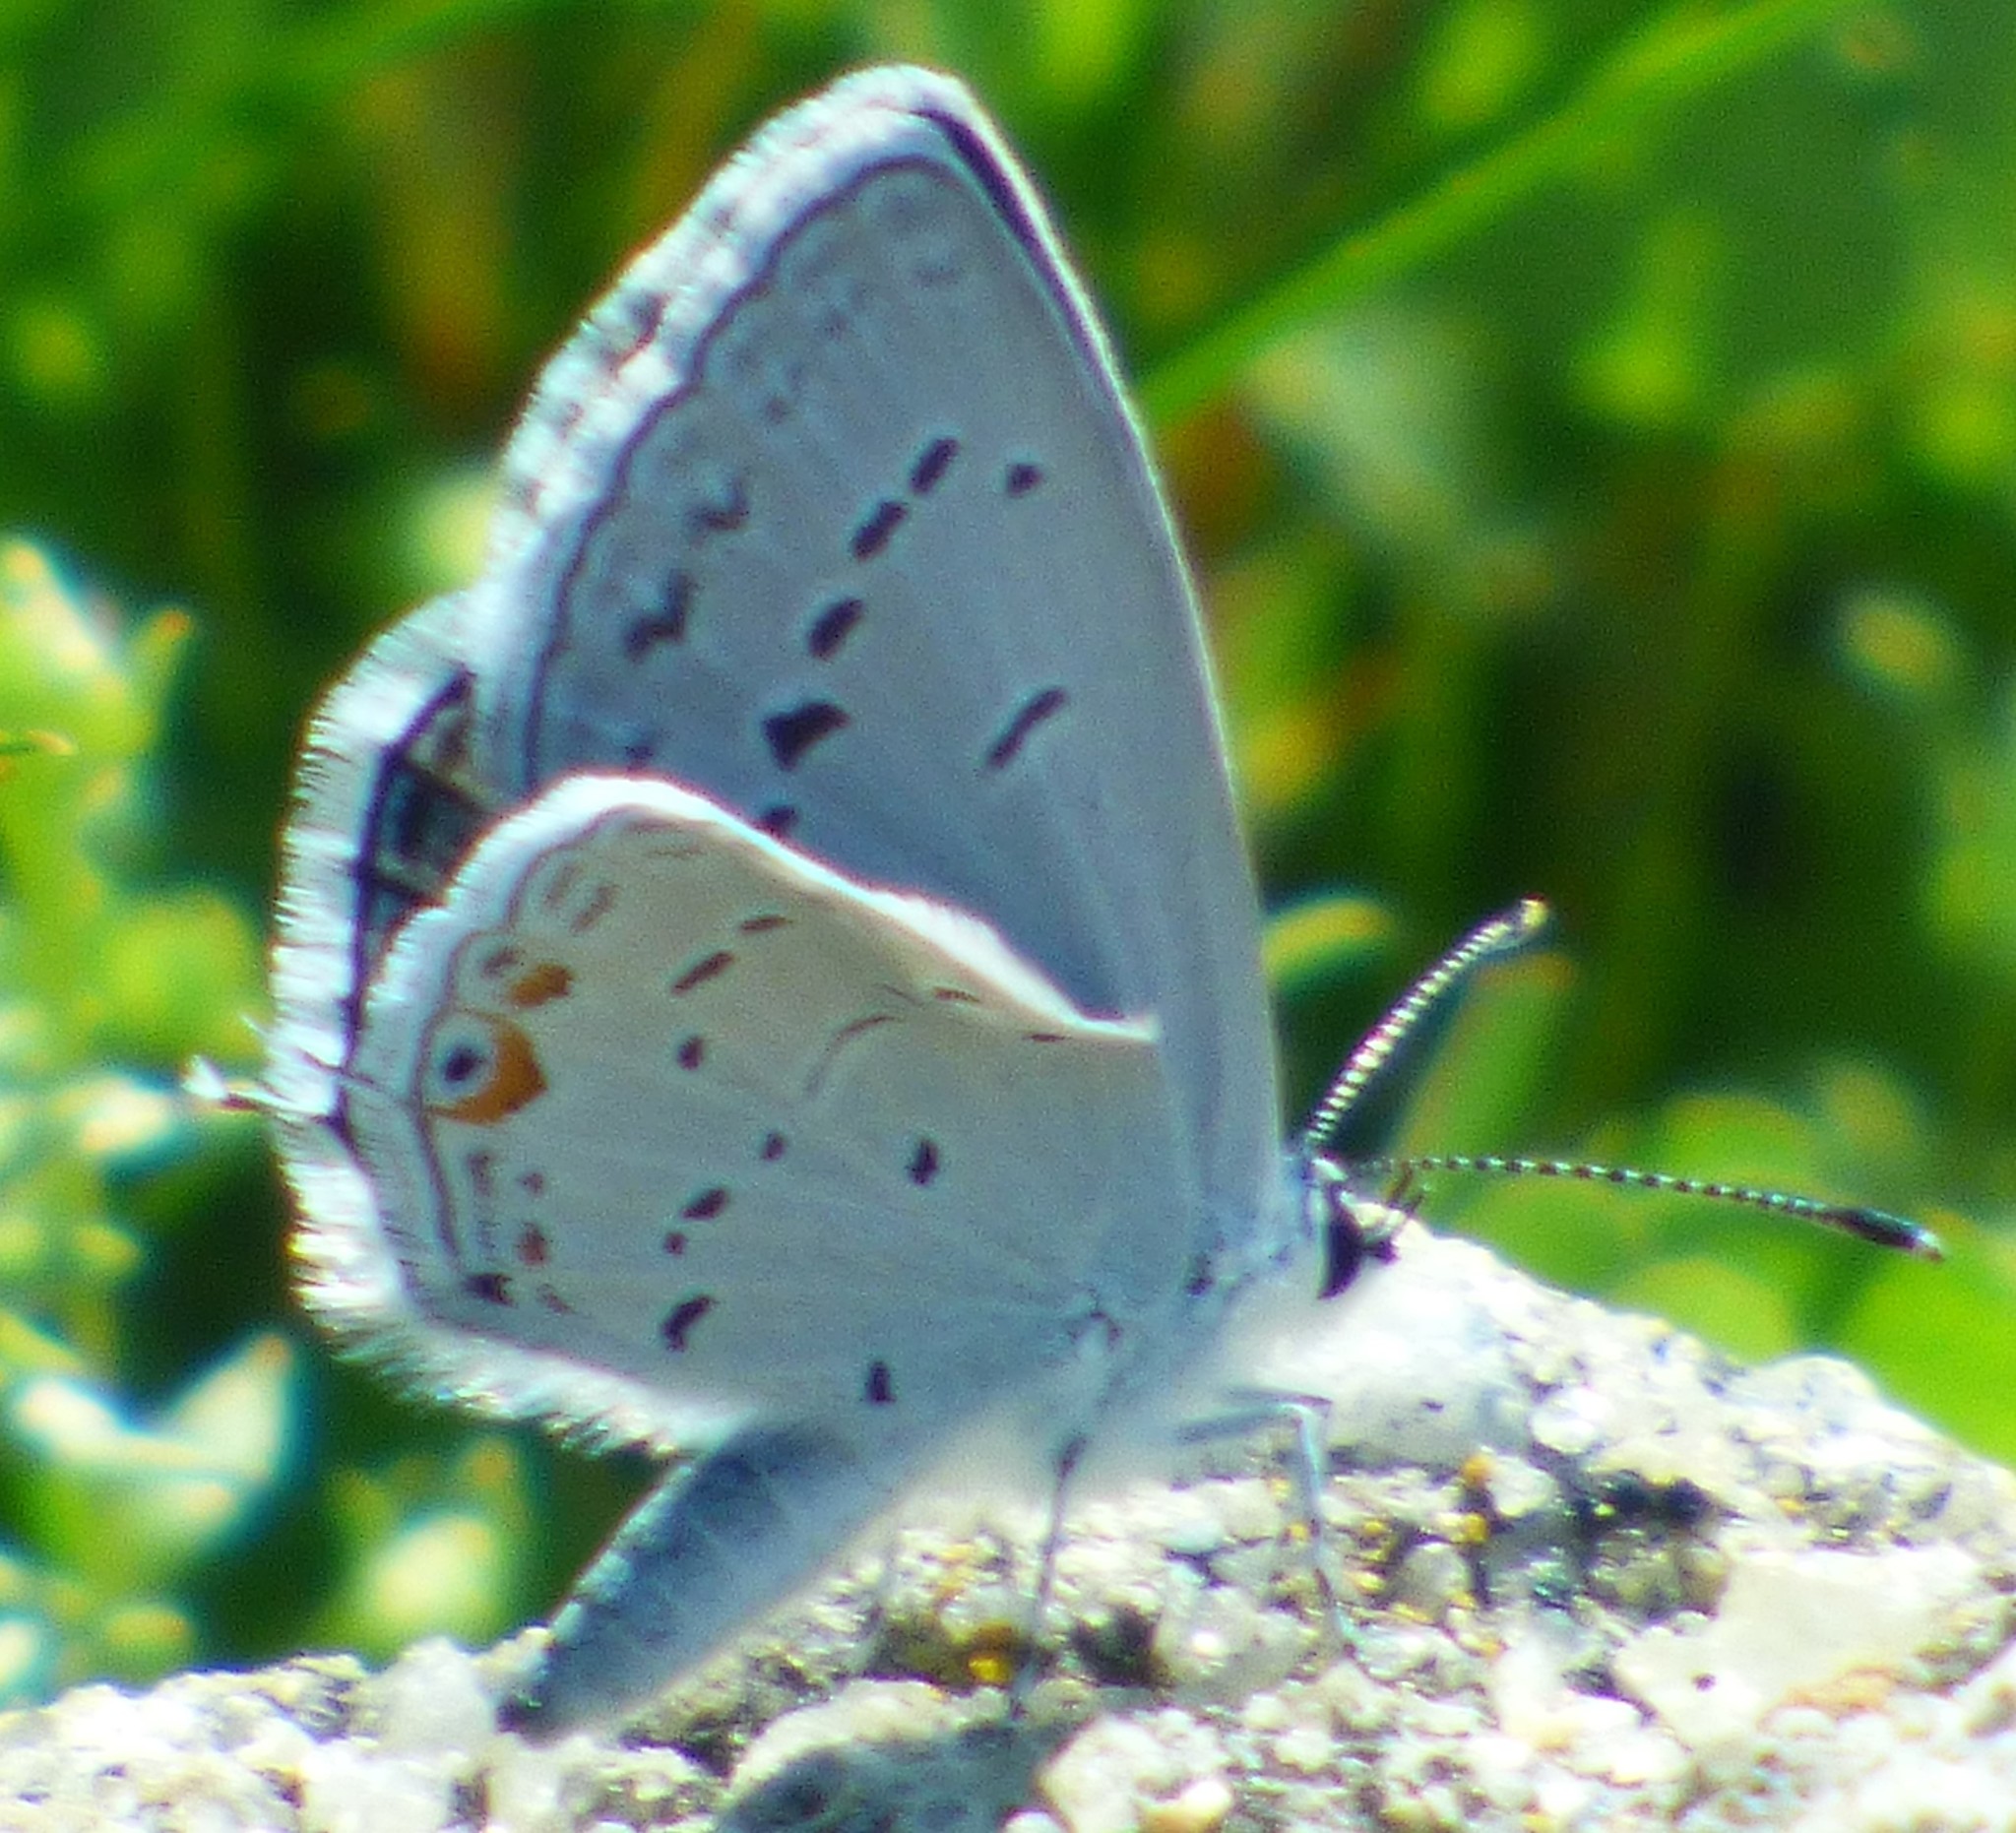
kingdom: Animalia
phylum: Arthropoda
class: Insecta
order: Lepidoptera
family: Lycaenidae
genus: Elkalyce
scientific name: Elkalyce comyntas
